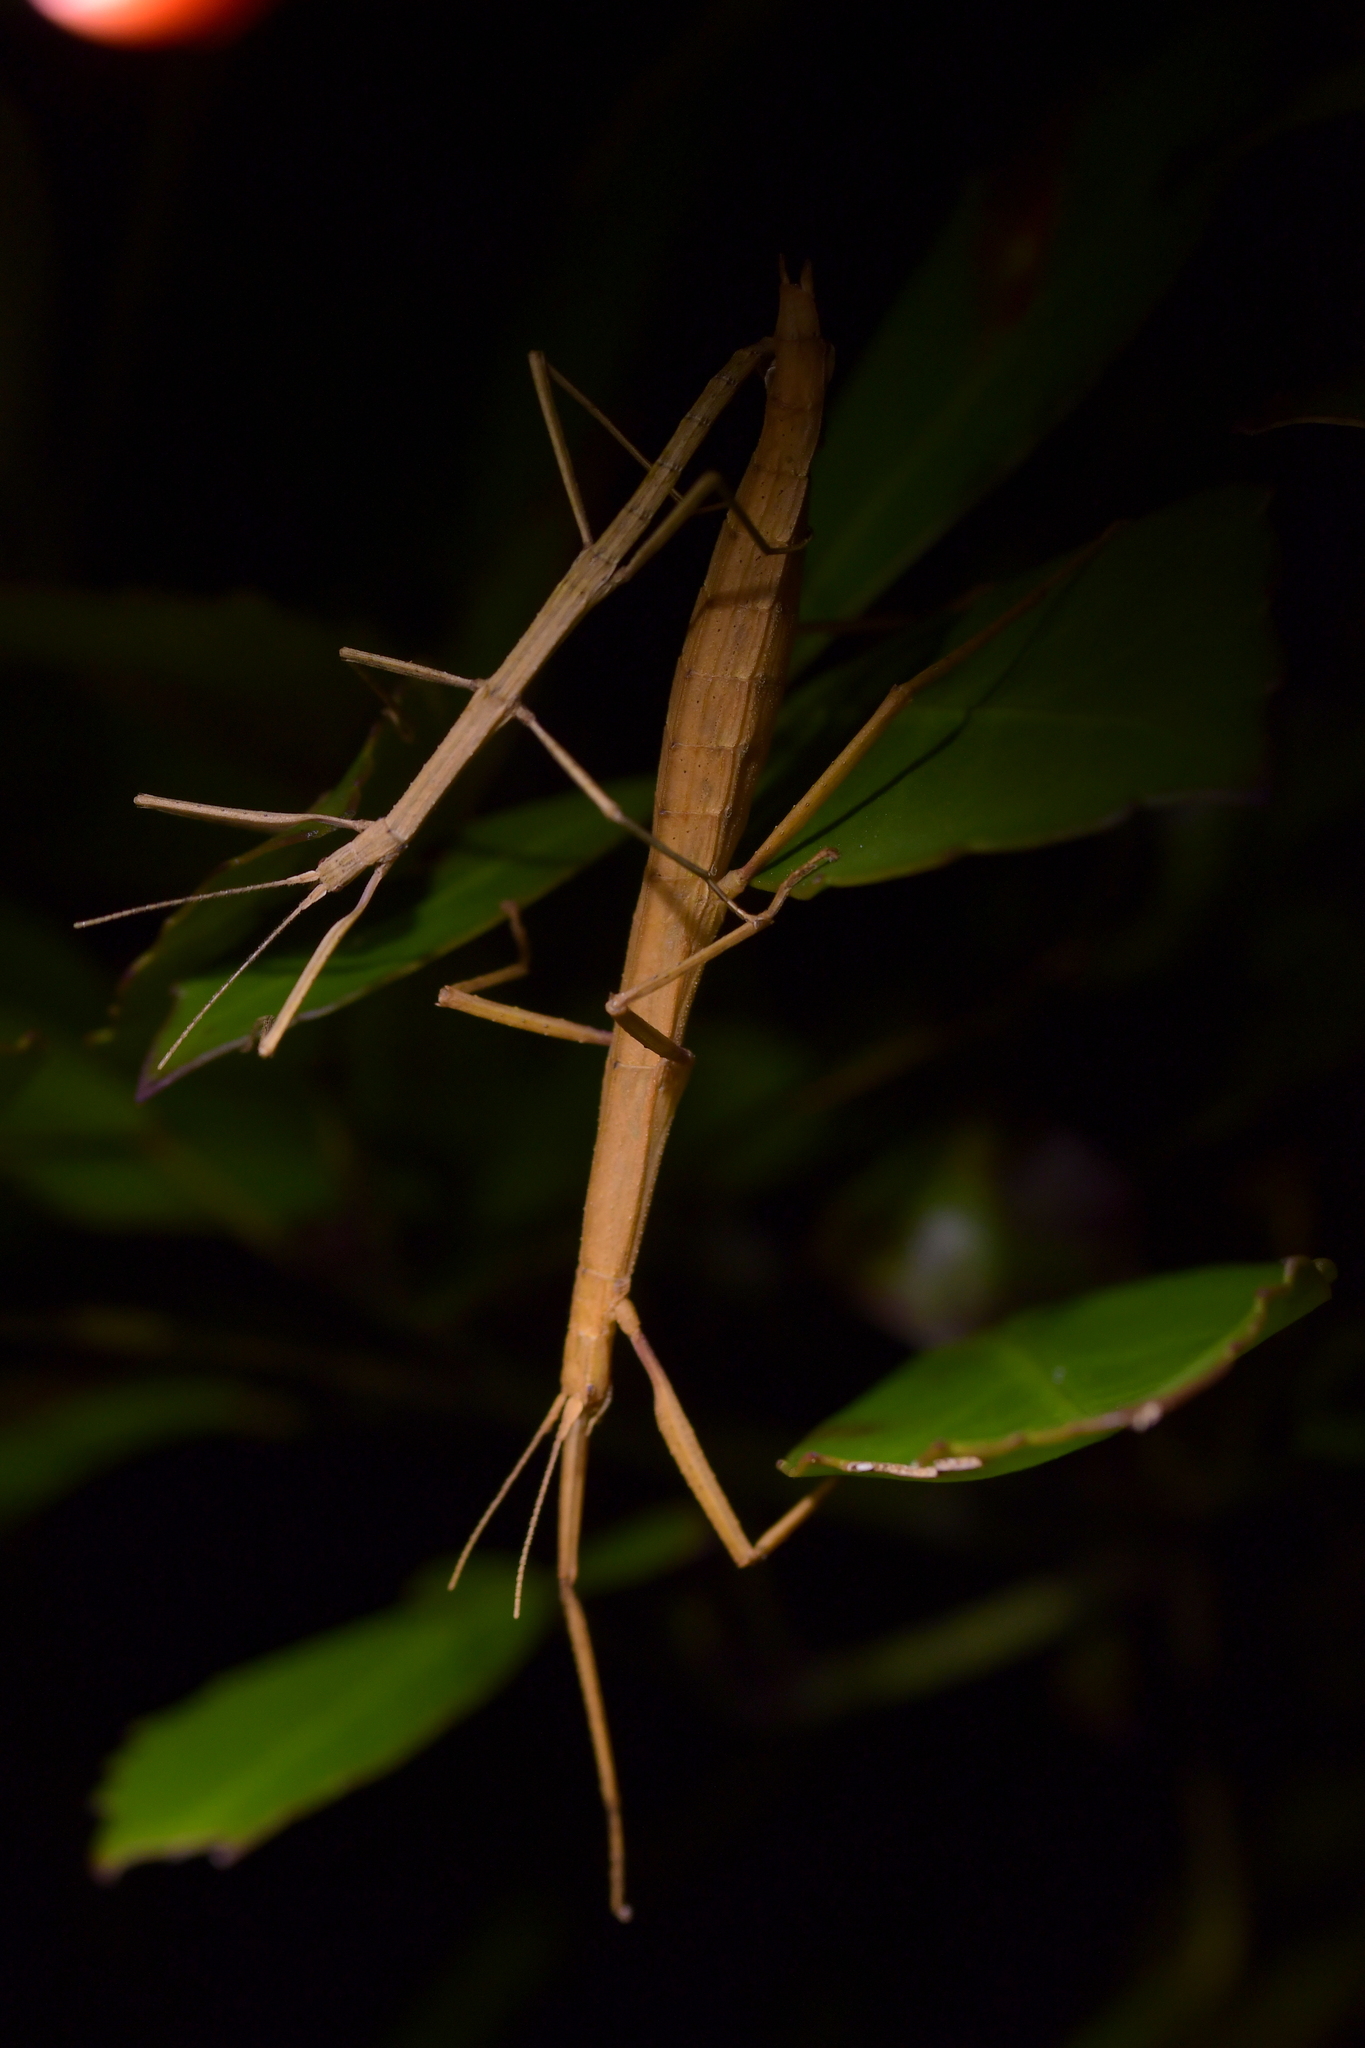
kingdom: Animalia
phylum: Arthropoda
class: Insecta
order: Phasmida
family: Phasmatidae
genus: Tectarchus
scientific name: Tectarchus huttoni
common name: The common ridge-backed stick insect
